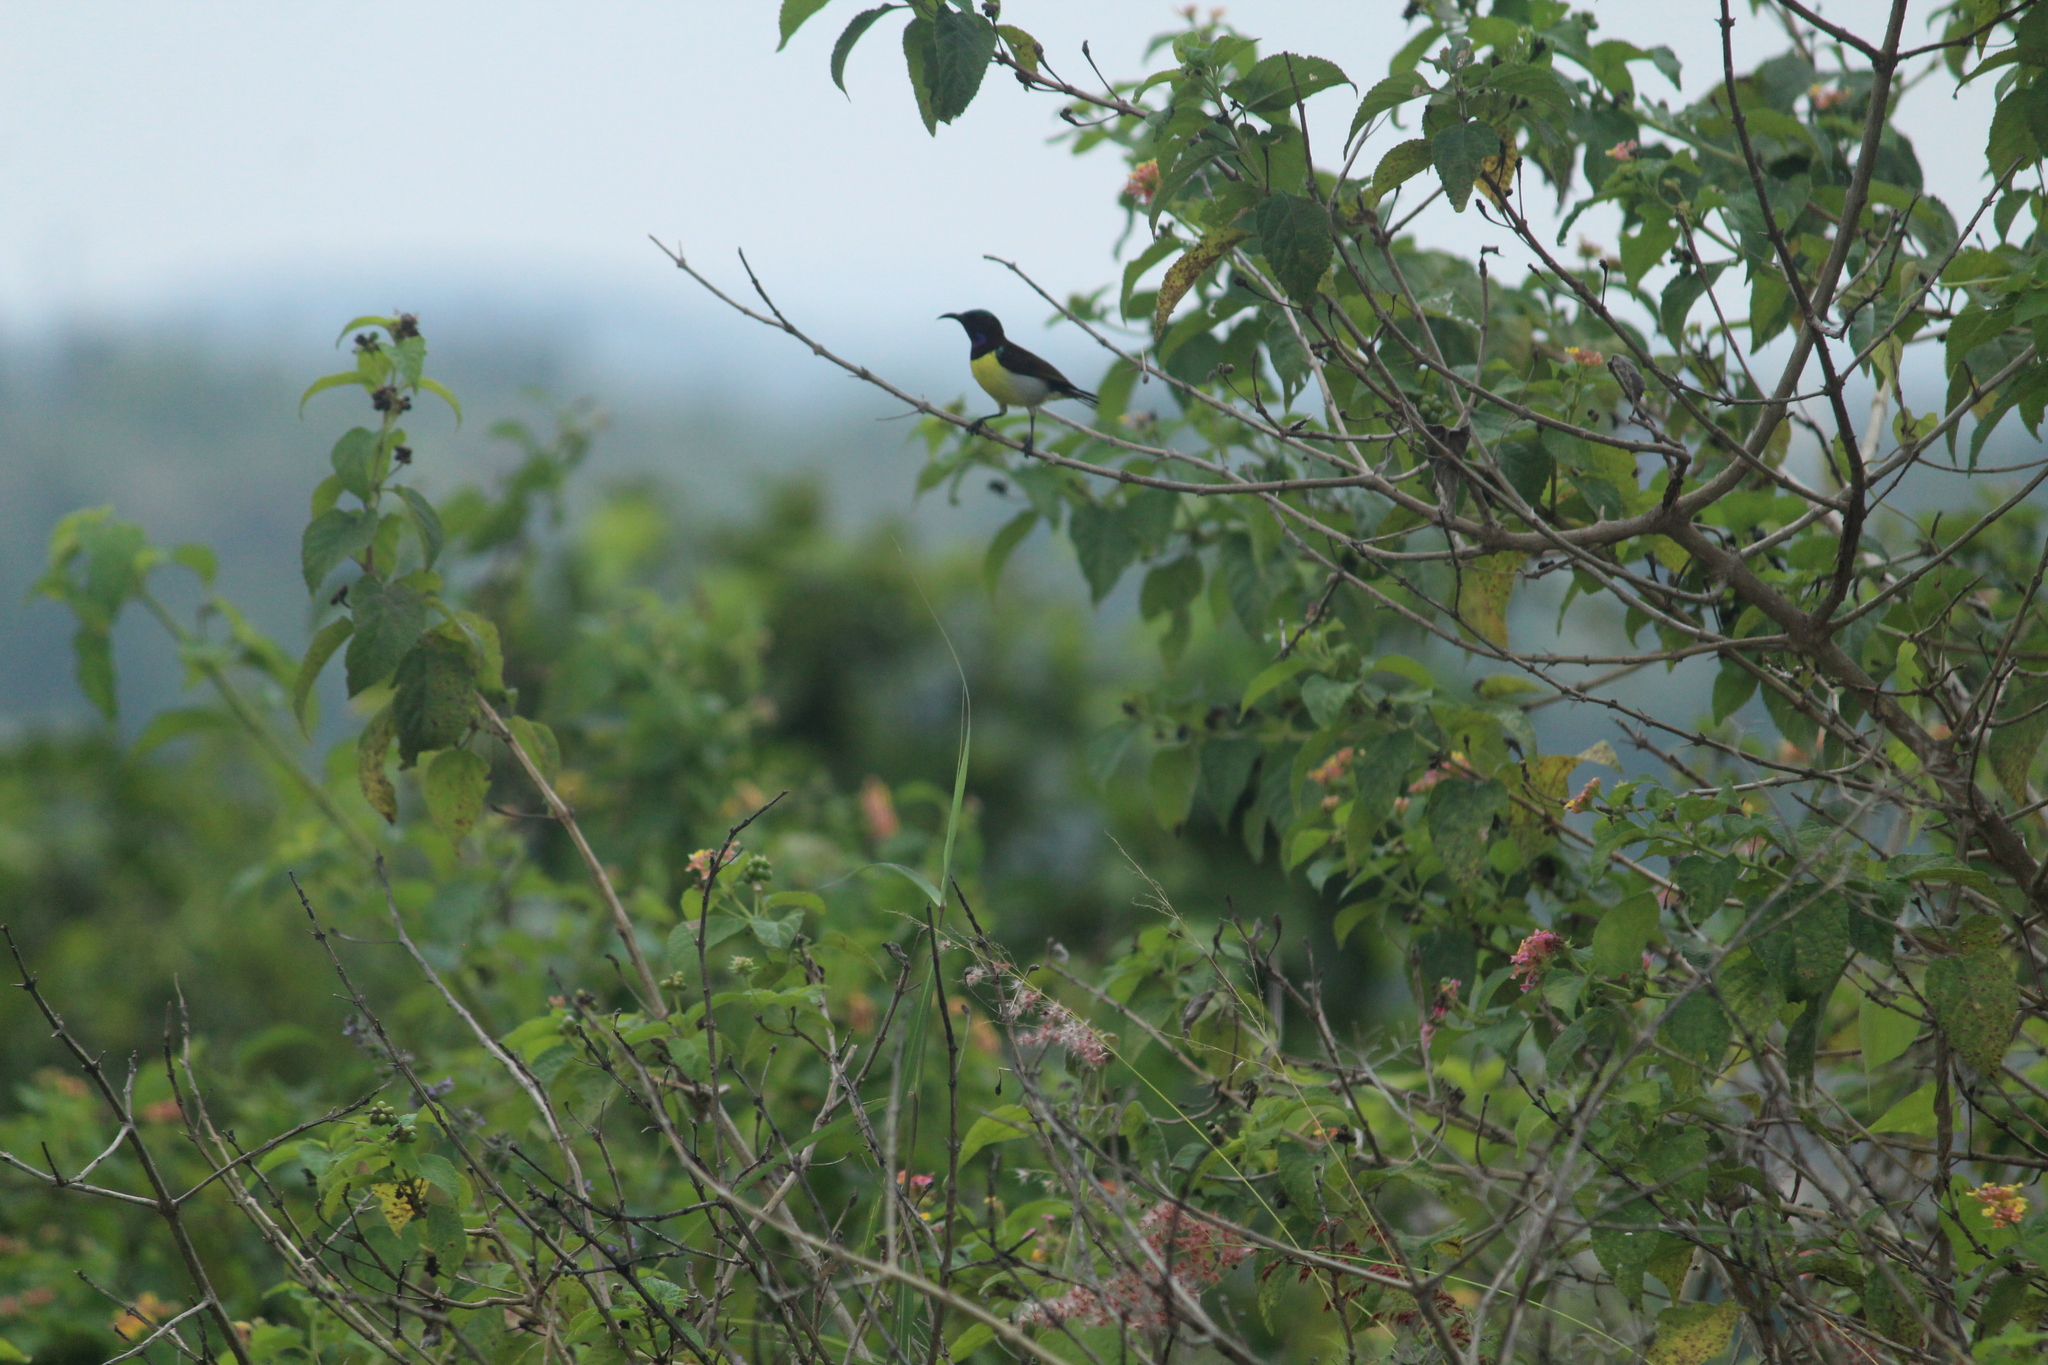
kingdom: Animalia
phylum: Chordata
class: Aves
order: Passeriformes
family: Nectariniidae
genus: Leptocoma
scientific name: Leptocoma zeylonica
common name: Purple-rumped sunbird
